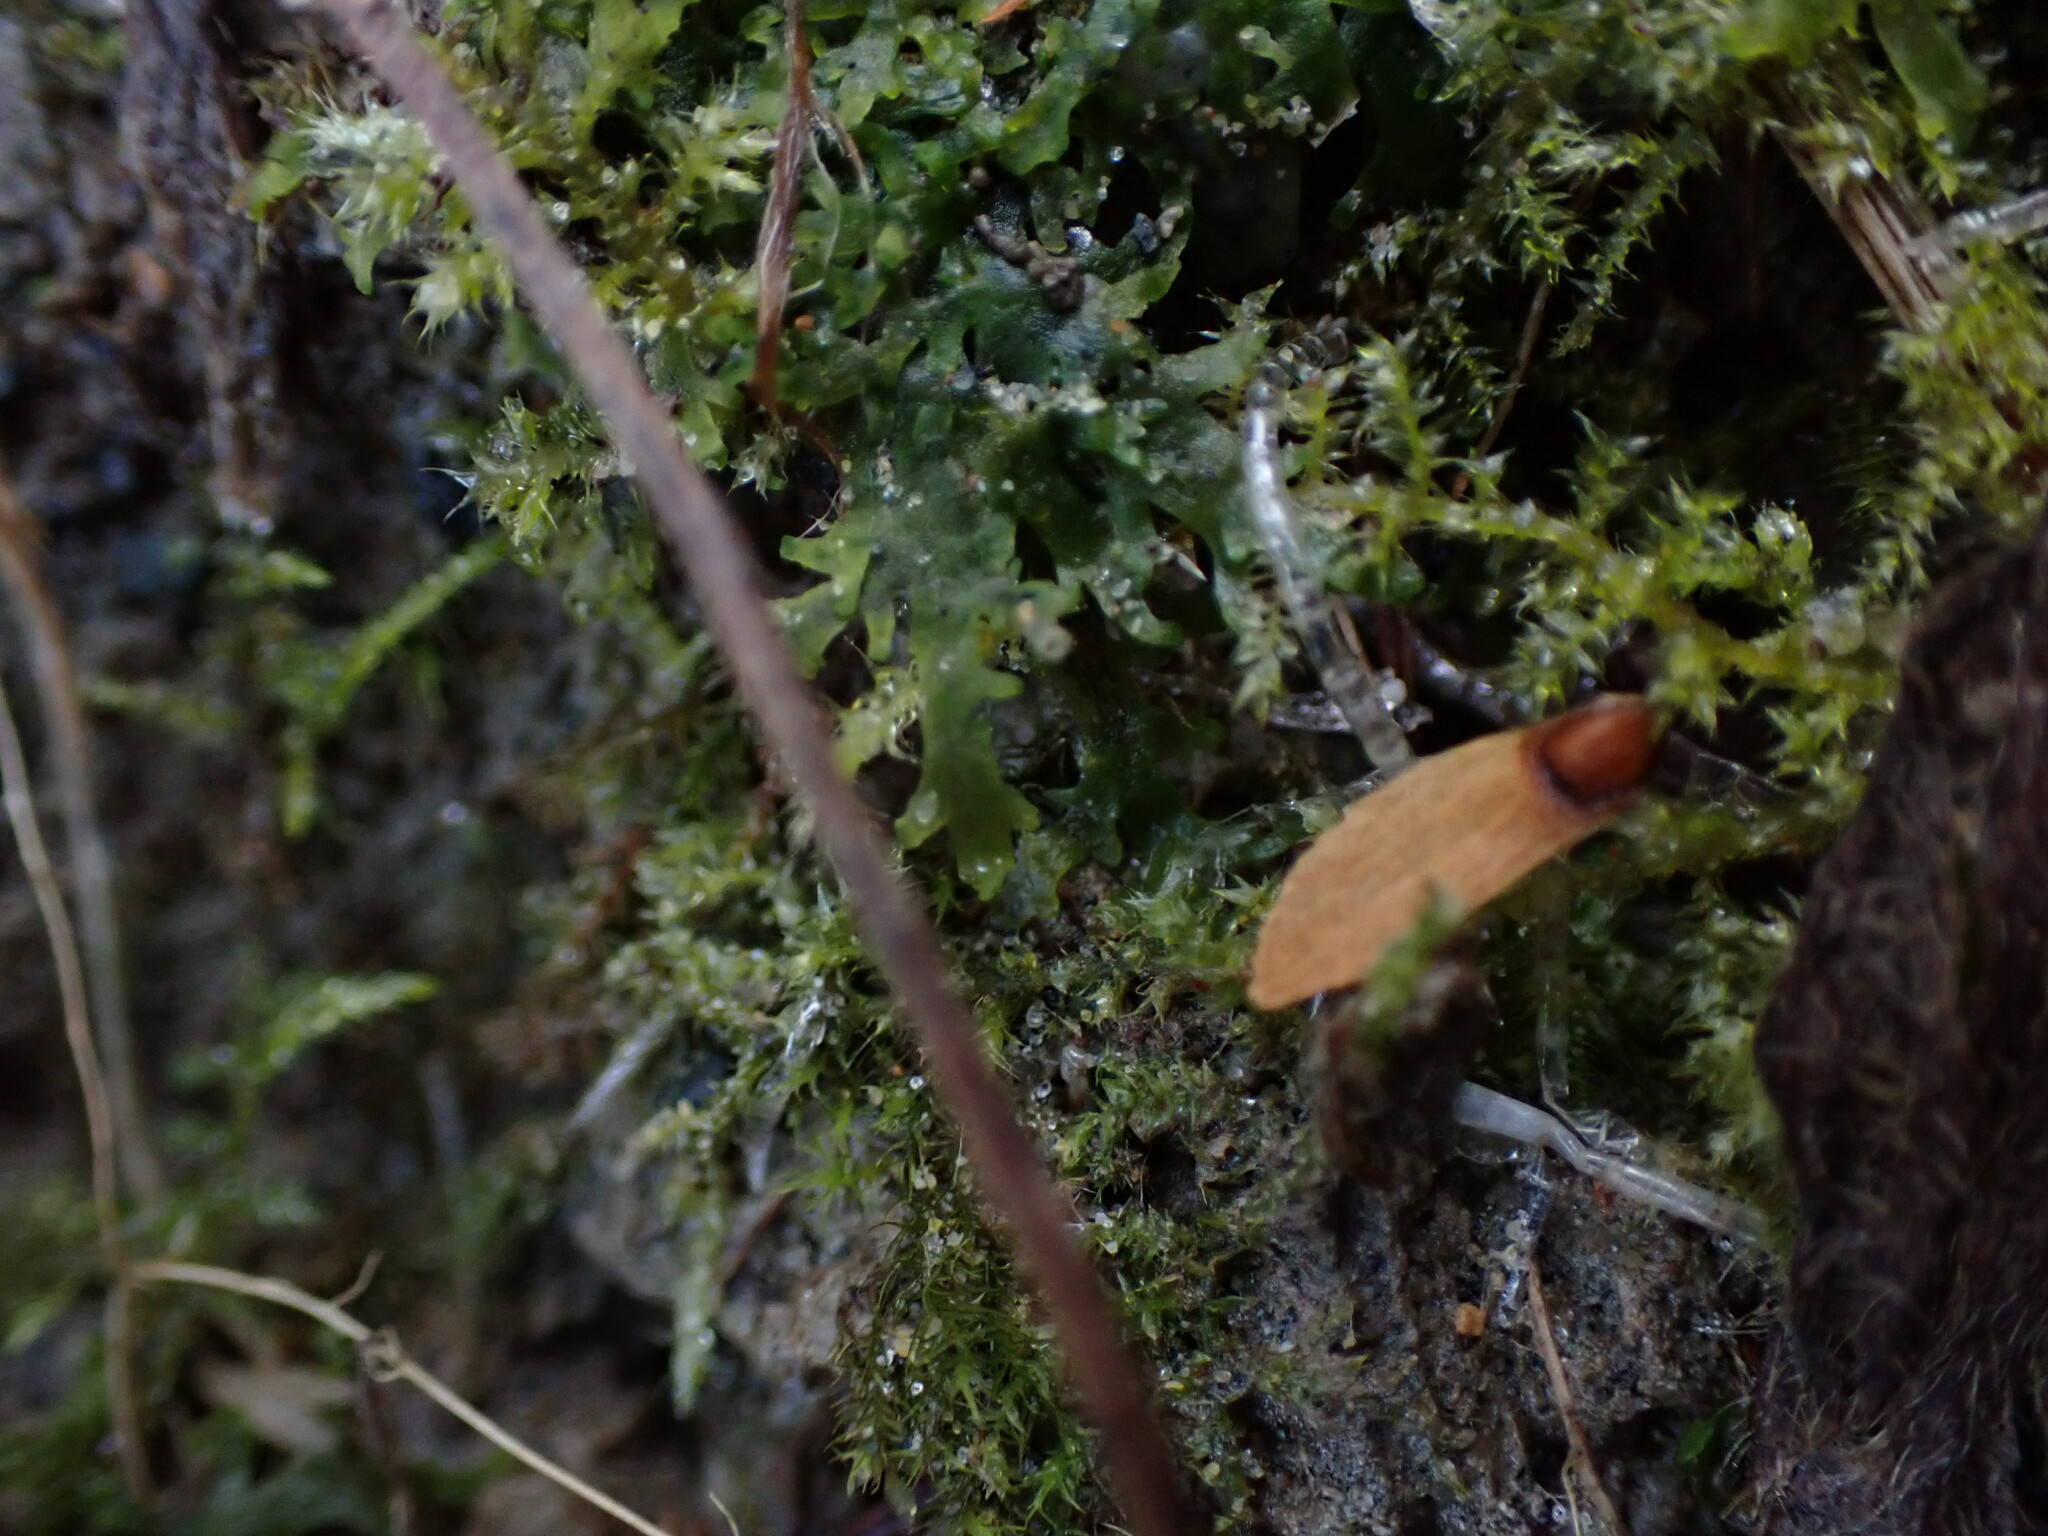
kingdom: Plantae
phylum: Marchantiophyta
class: Jungermanniopsida
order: Metzgeriales
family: Aneuraceae
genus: Riccardia
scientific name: Riccardia chamedryfolia
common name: Jagged germanderwort
